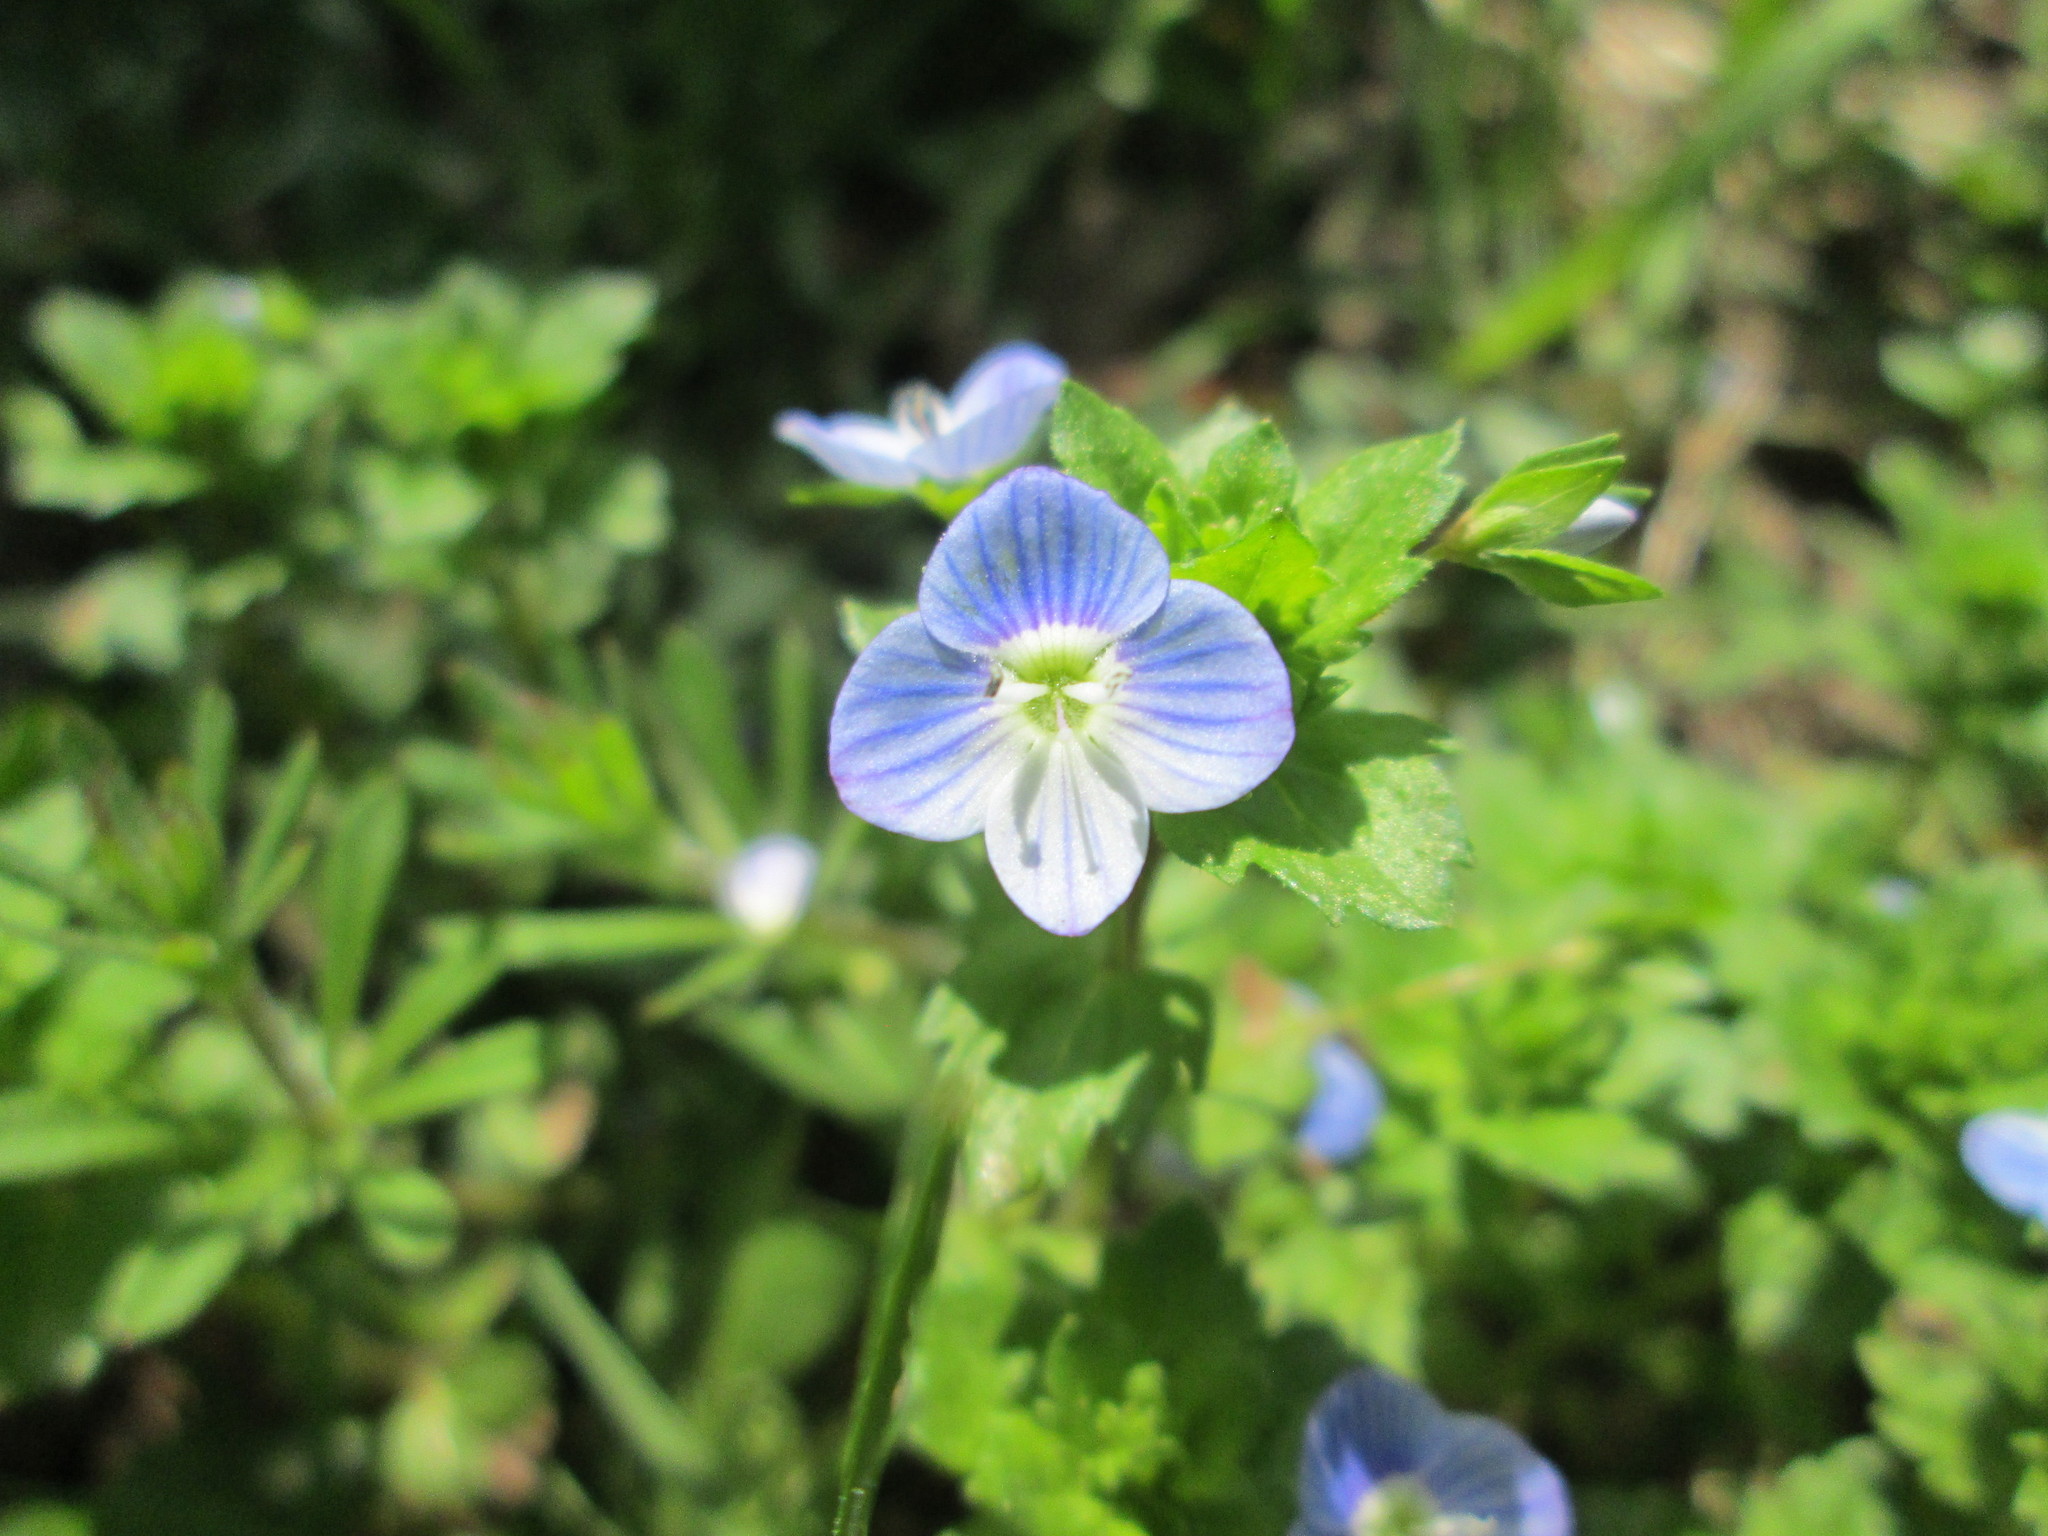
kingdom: Plantae
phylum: Tracheophyta
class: Magnoliopsida
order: Lamiales
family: Plantaginaceae
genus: Veronica
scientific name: Veronica persica
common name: Common field-speedwell
